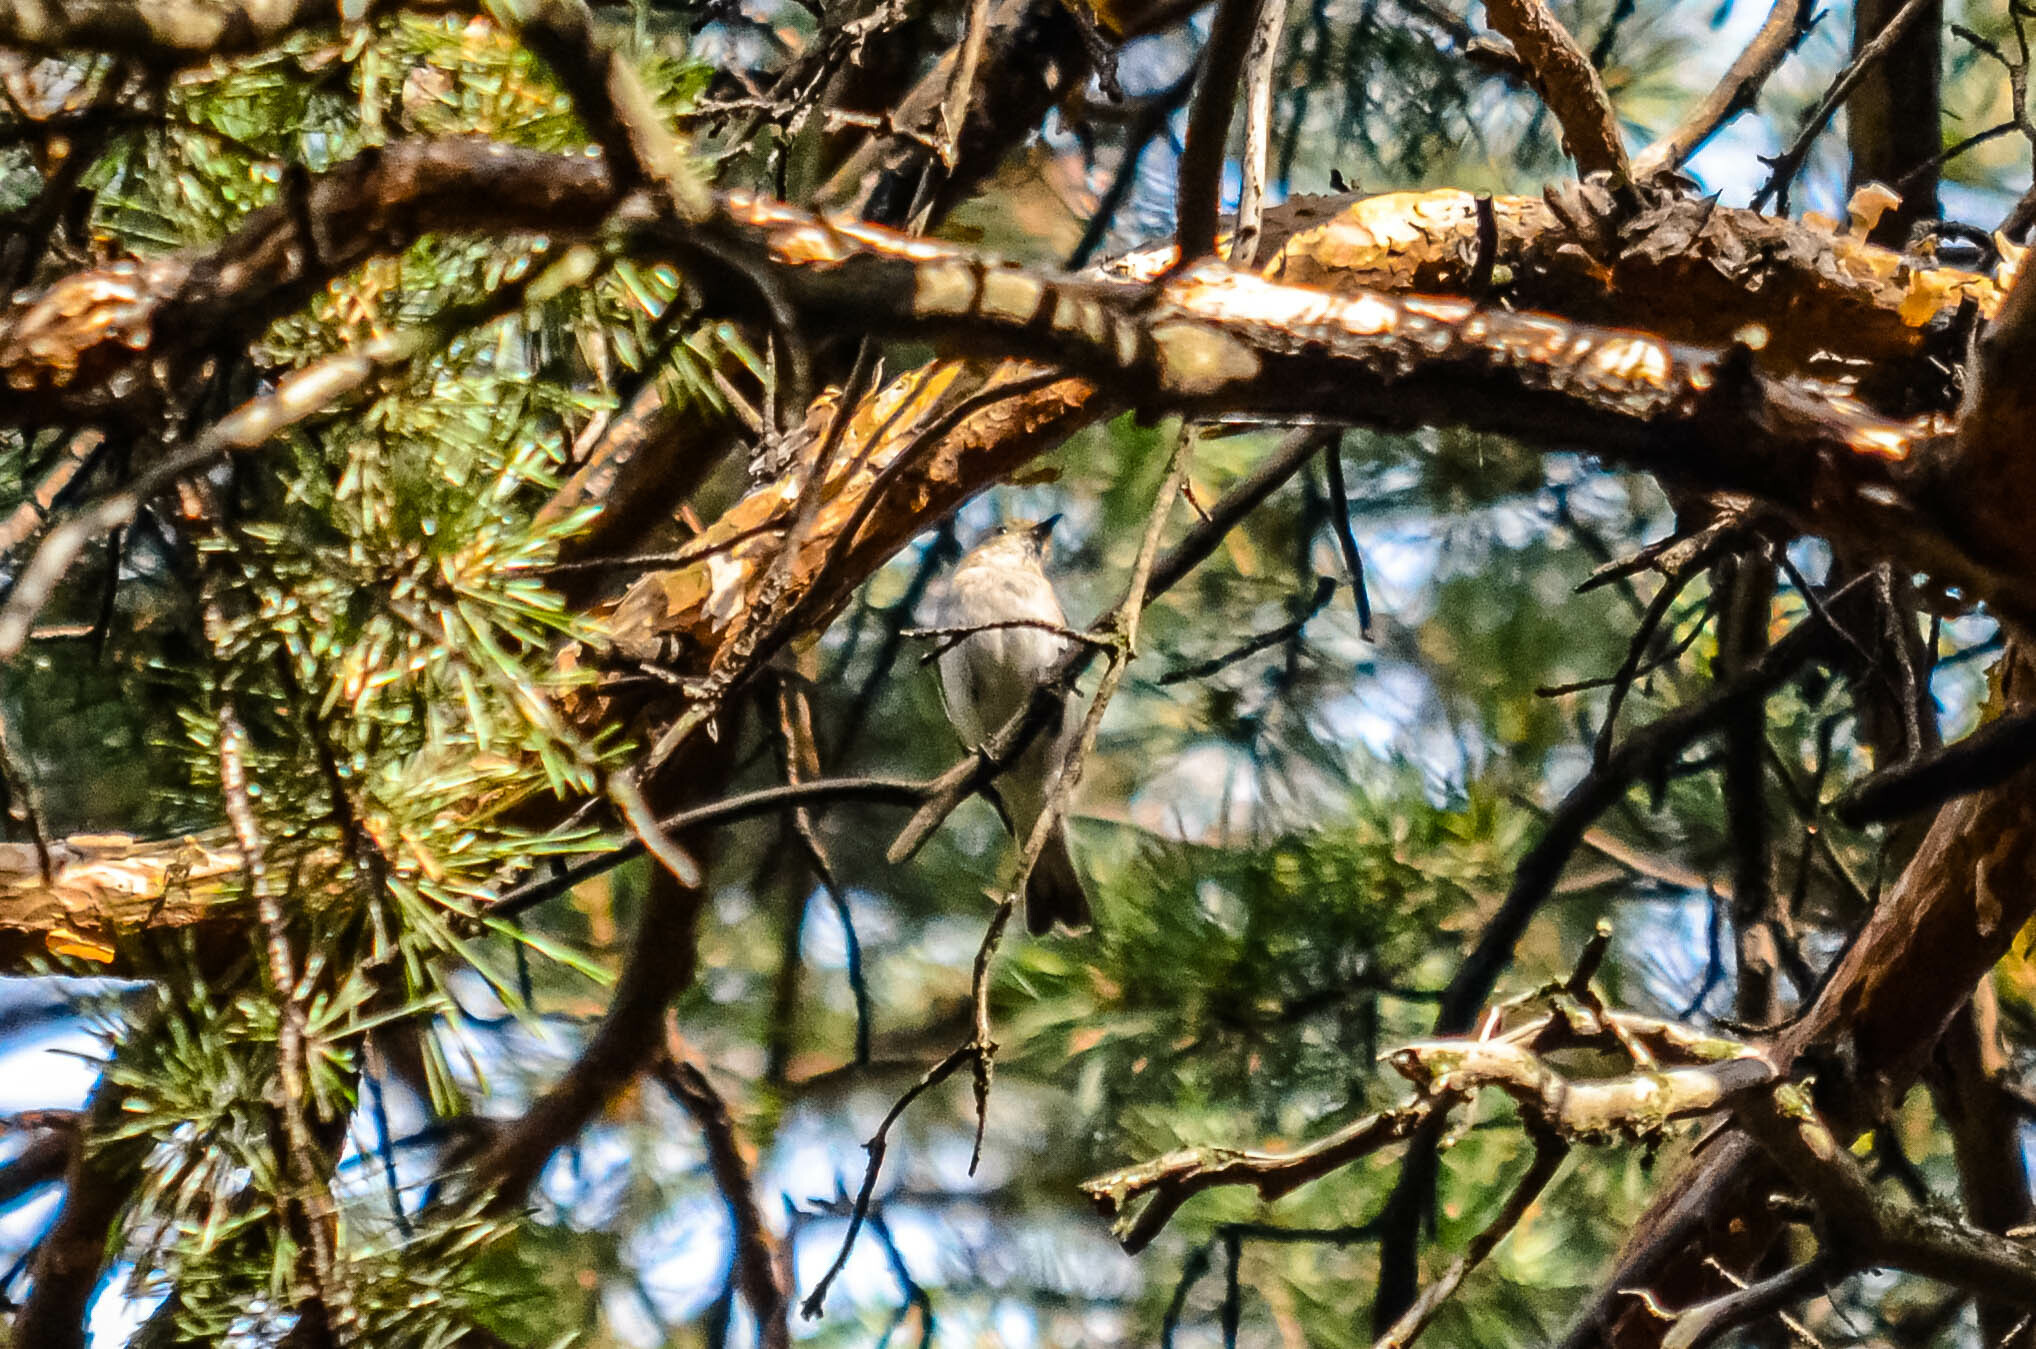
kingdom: Animalia
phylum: Chordata
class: Aves
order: Passeriformes
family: Muscicapidae
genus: Muscicapa
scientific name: Muscicapa striata
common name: Spotted flycatcher
